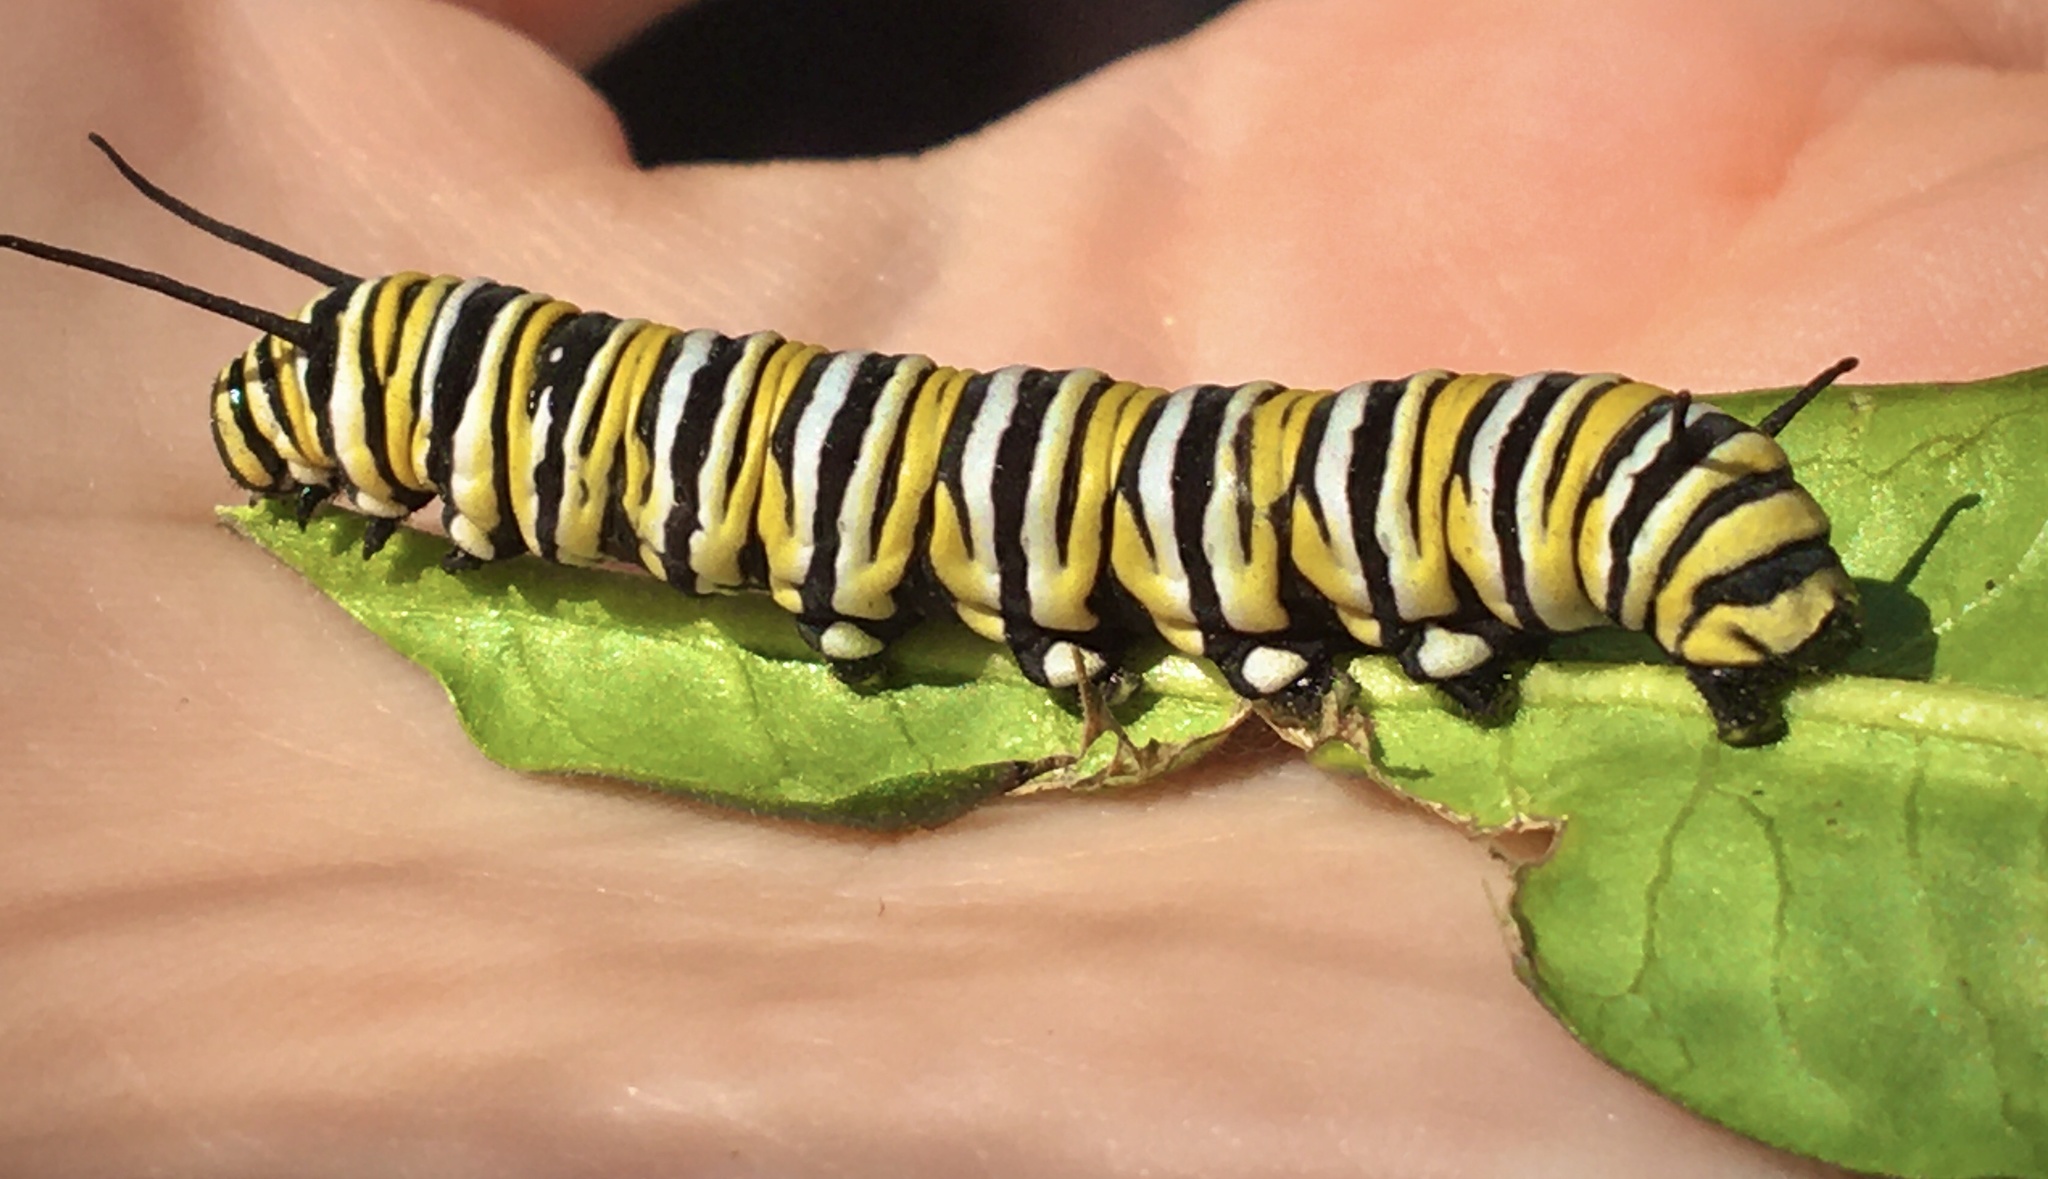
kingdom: Animalia
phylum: Arthropoda
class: Insecta
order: Lepidoptera
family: Nymphalidae
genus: Danaus
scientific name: Danaus plexippus
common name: Monarch
